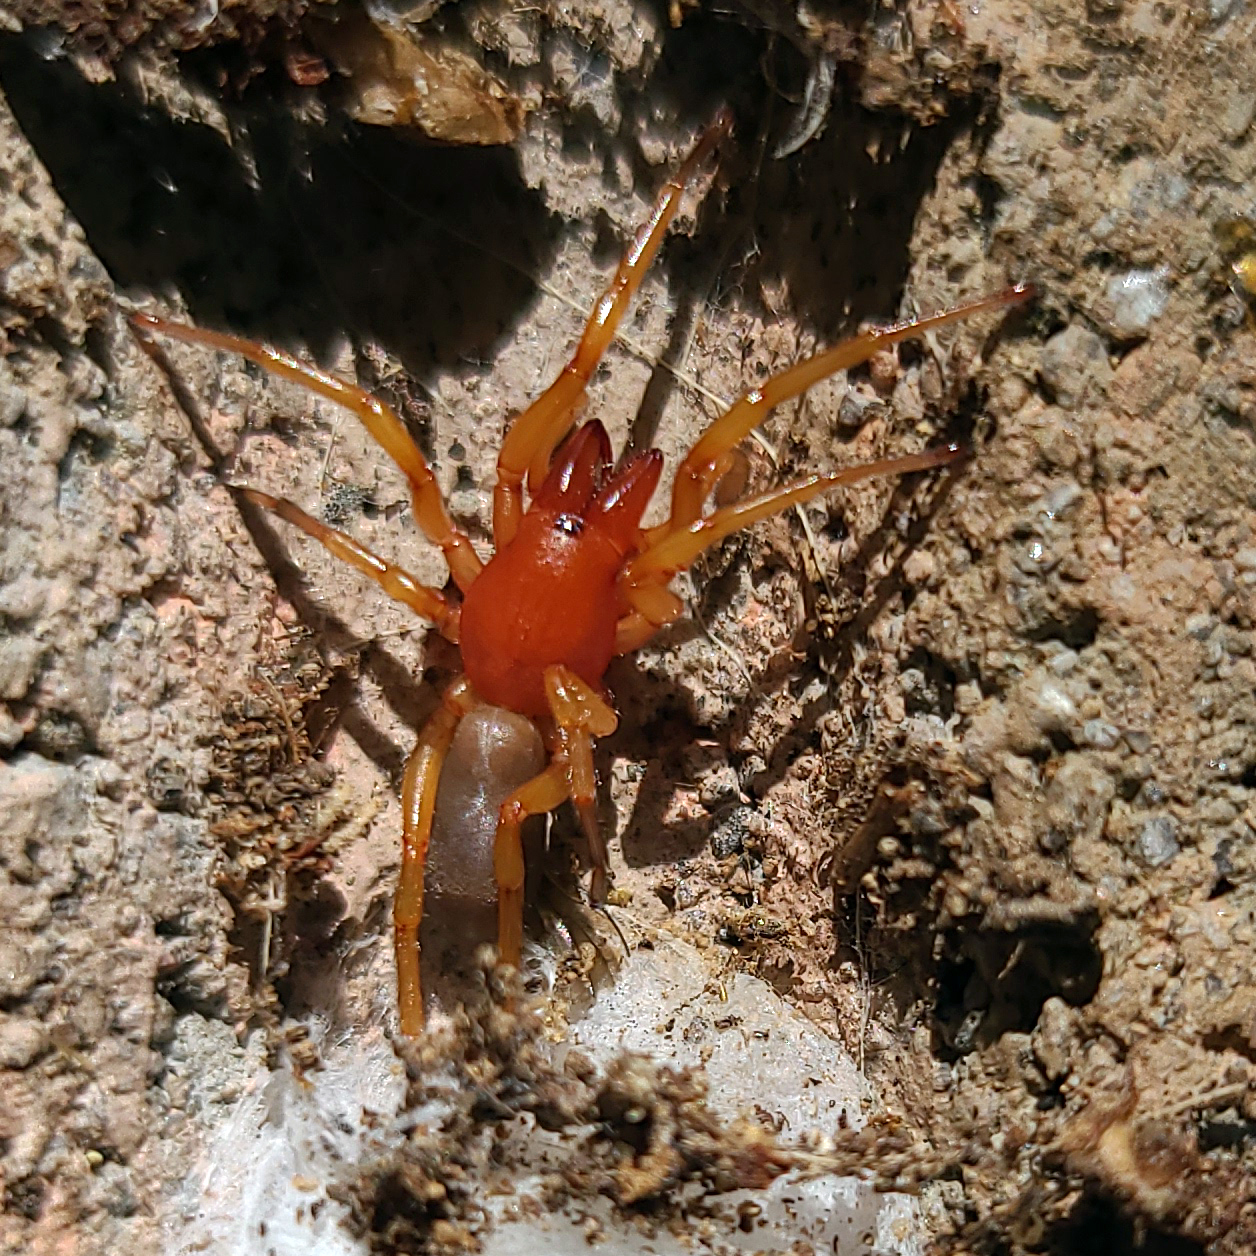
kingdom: Animalia
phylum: Arthropoda
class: Arachnida
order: Araneae
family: Dysderidae
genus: Dysdera
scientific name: Dysdera crocata
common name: Woodlouse spider
